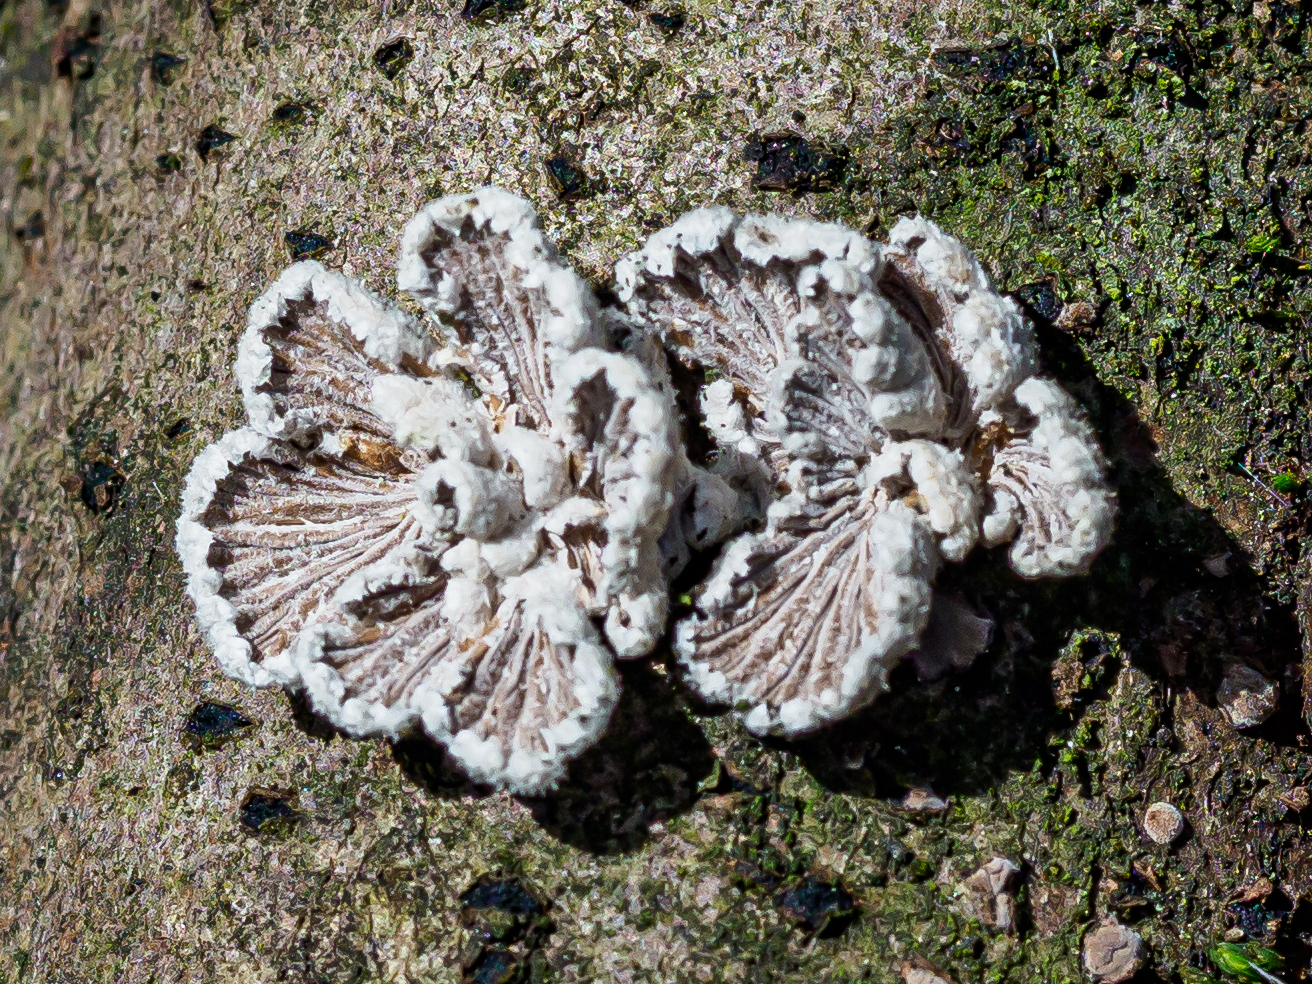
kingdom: Fungi
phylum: Basidiomycota
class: Agaricomycetes
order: Agaricales
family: Schizophyllaceae
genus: Schizophyllum
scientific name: Schizophyllum commune
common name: Common porecrust
